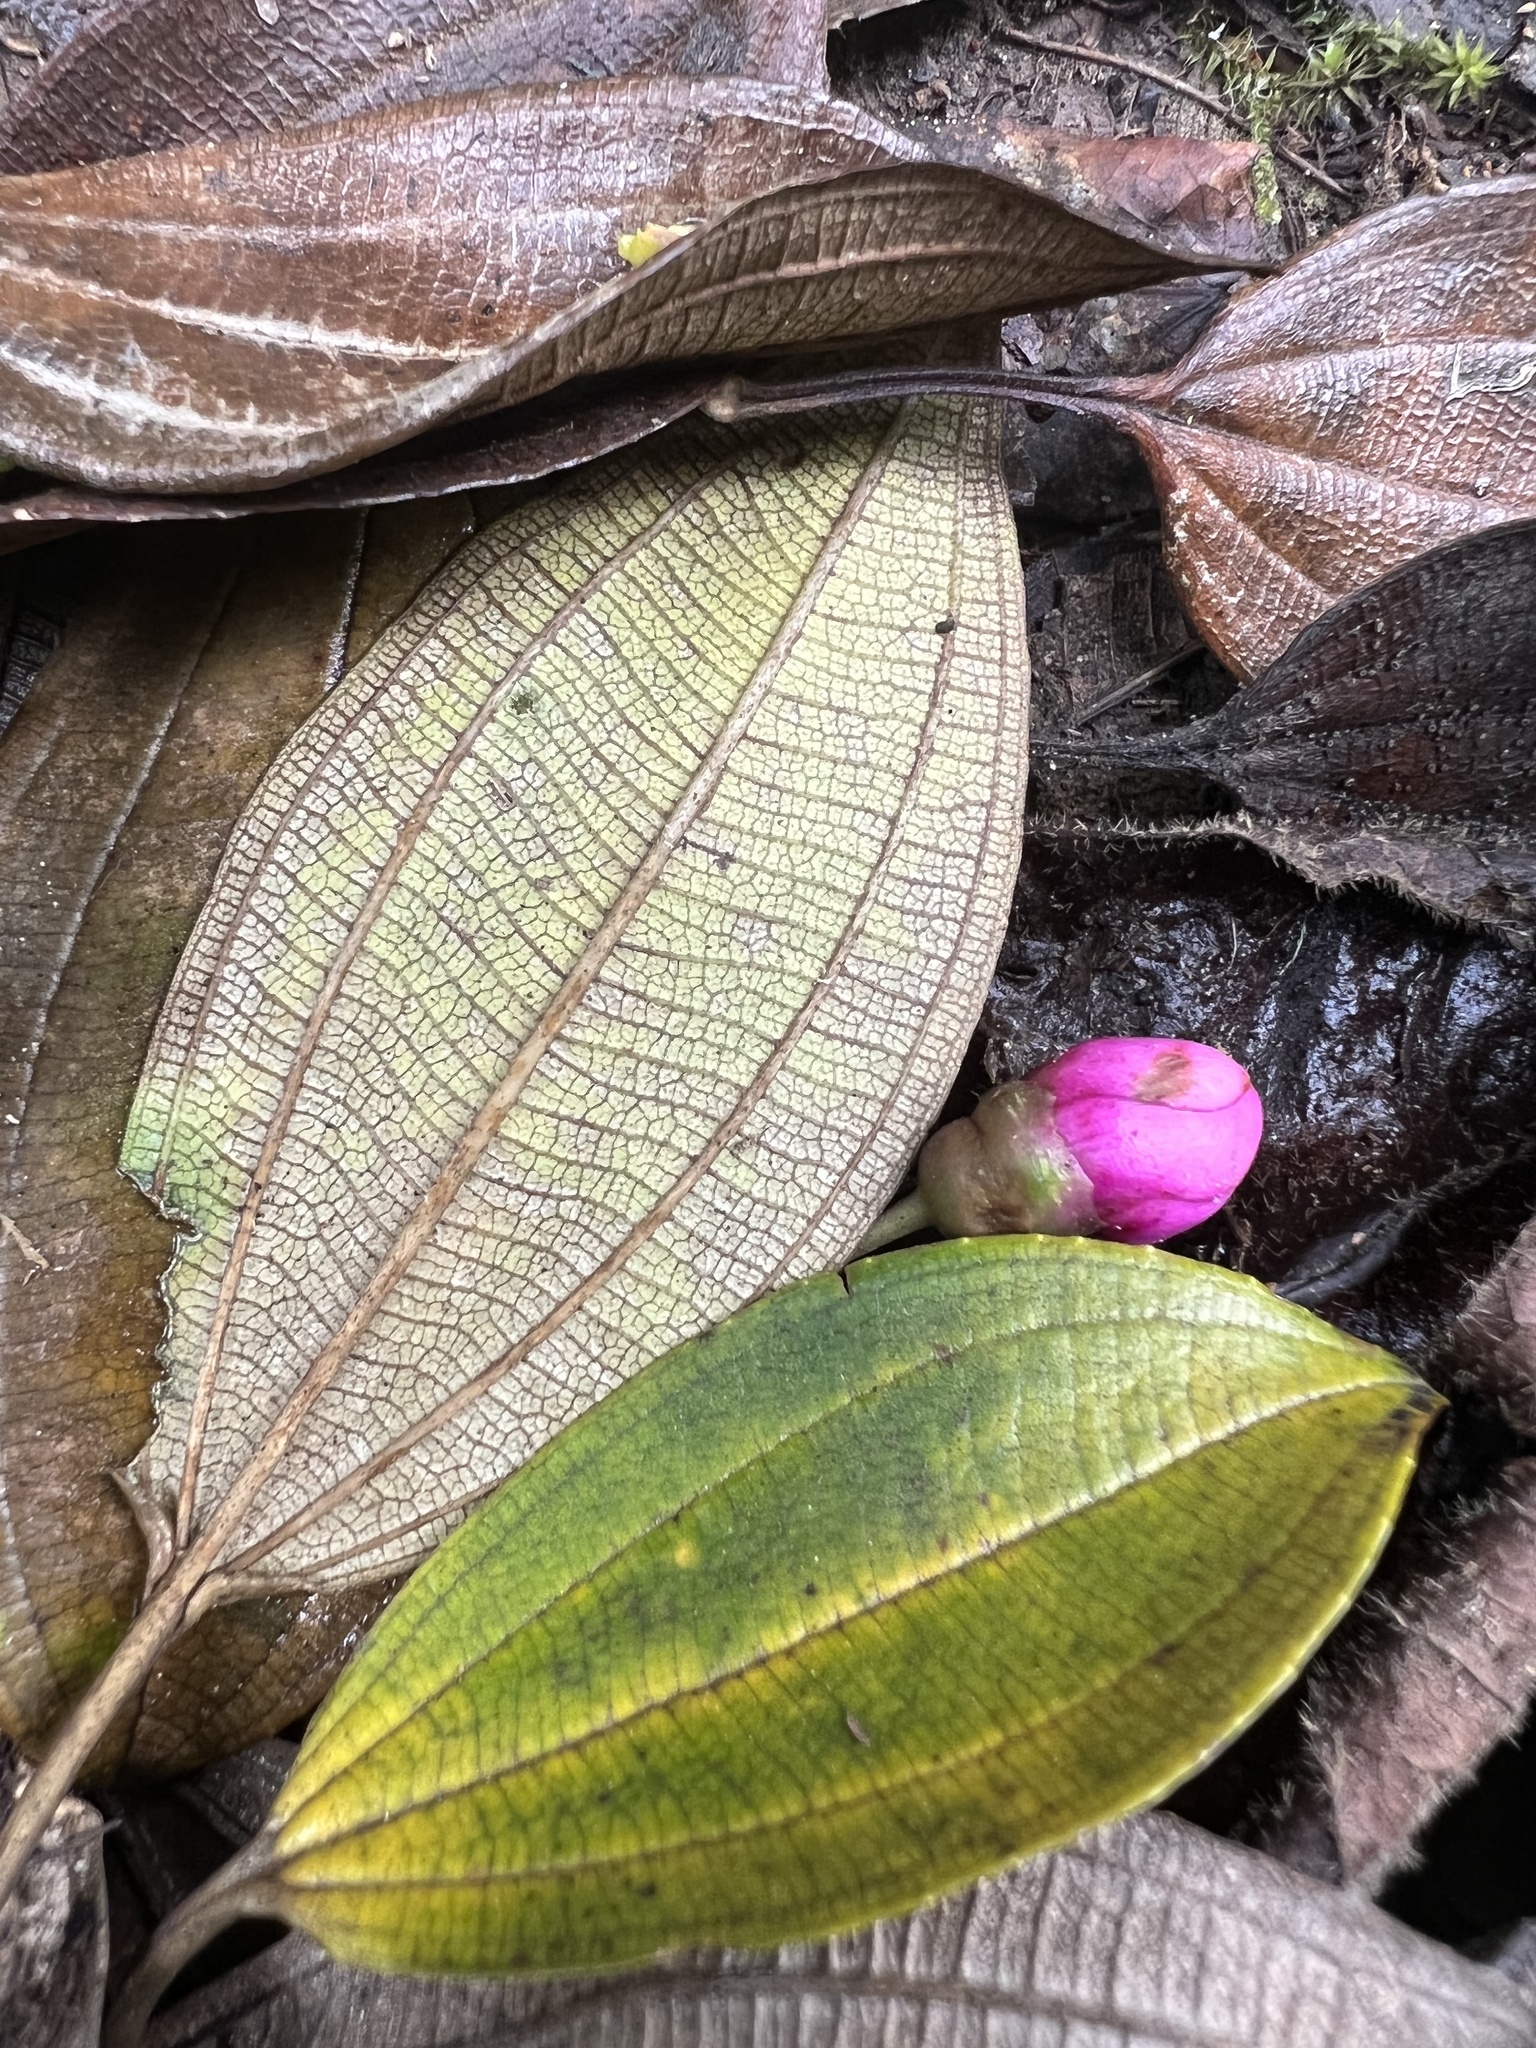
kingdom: Plantae
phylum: Tracheophyta
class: Magnoliopsida
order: Myrtales
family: Melastomataceae
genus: Axinaea
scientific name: Axinaea macrophylla
